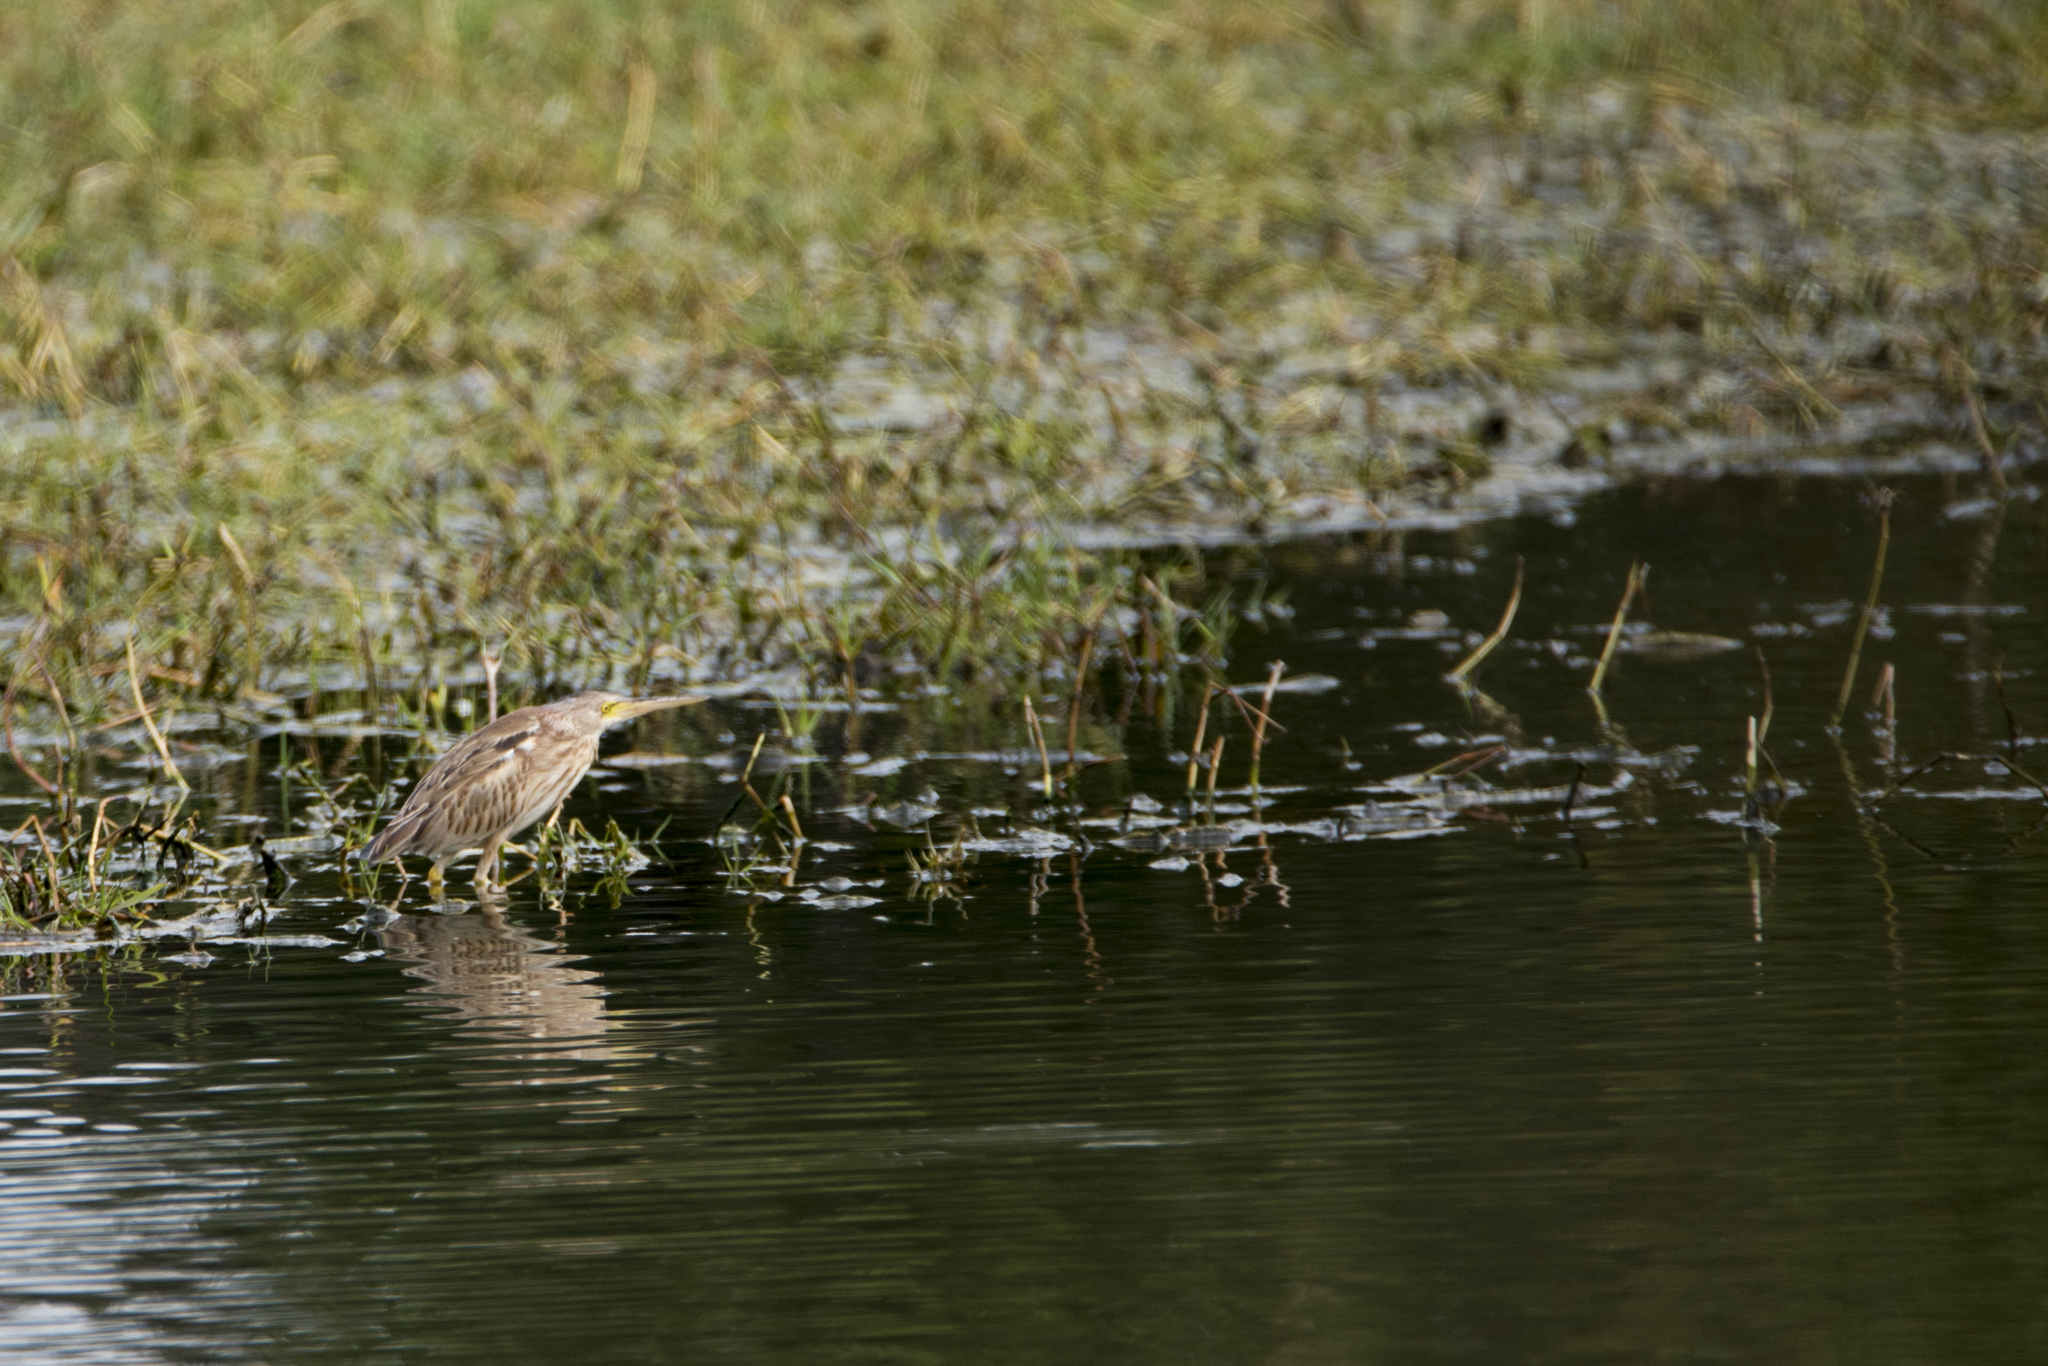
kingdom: Animalia
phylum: Chordata
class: Aves
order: Pelecaniformes
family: Ardeidae
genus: Ixobrychus
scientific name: Ixobrychus sinensis
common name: Yellow bittern
